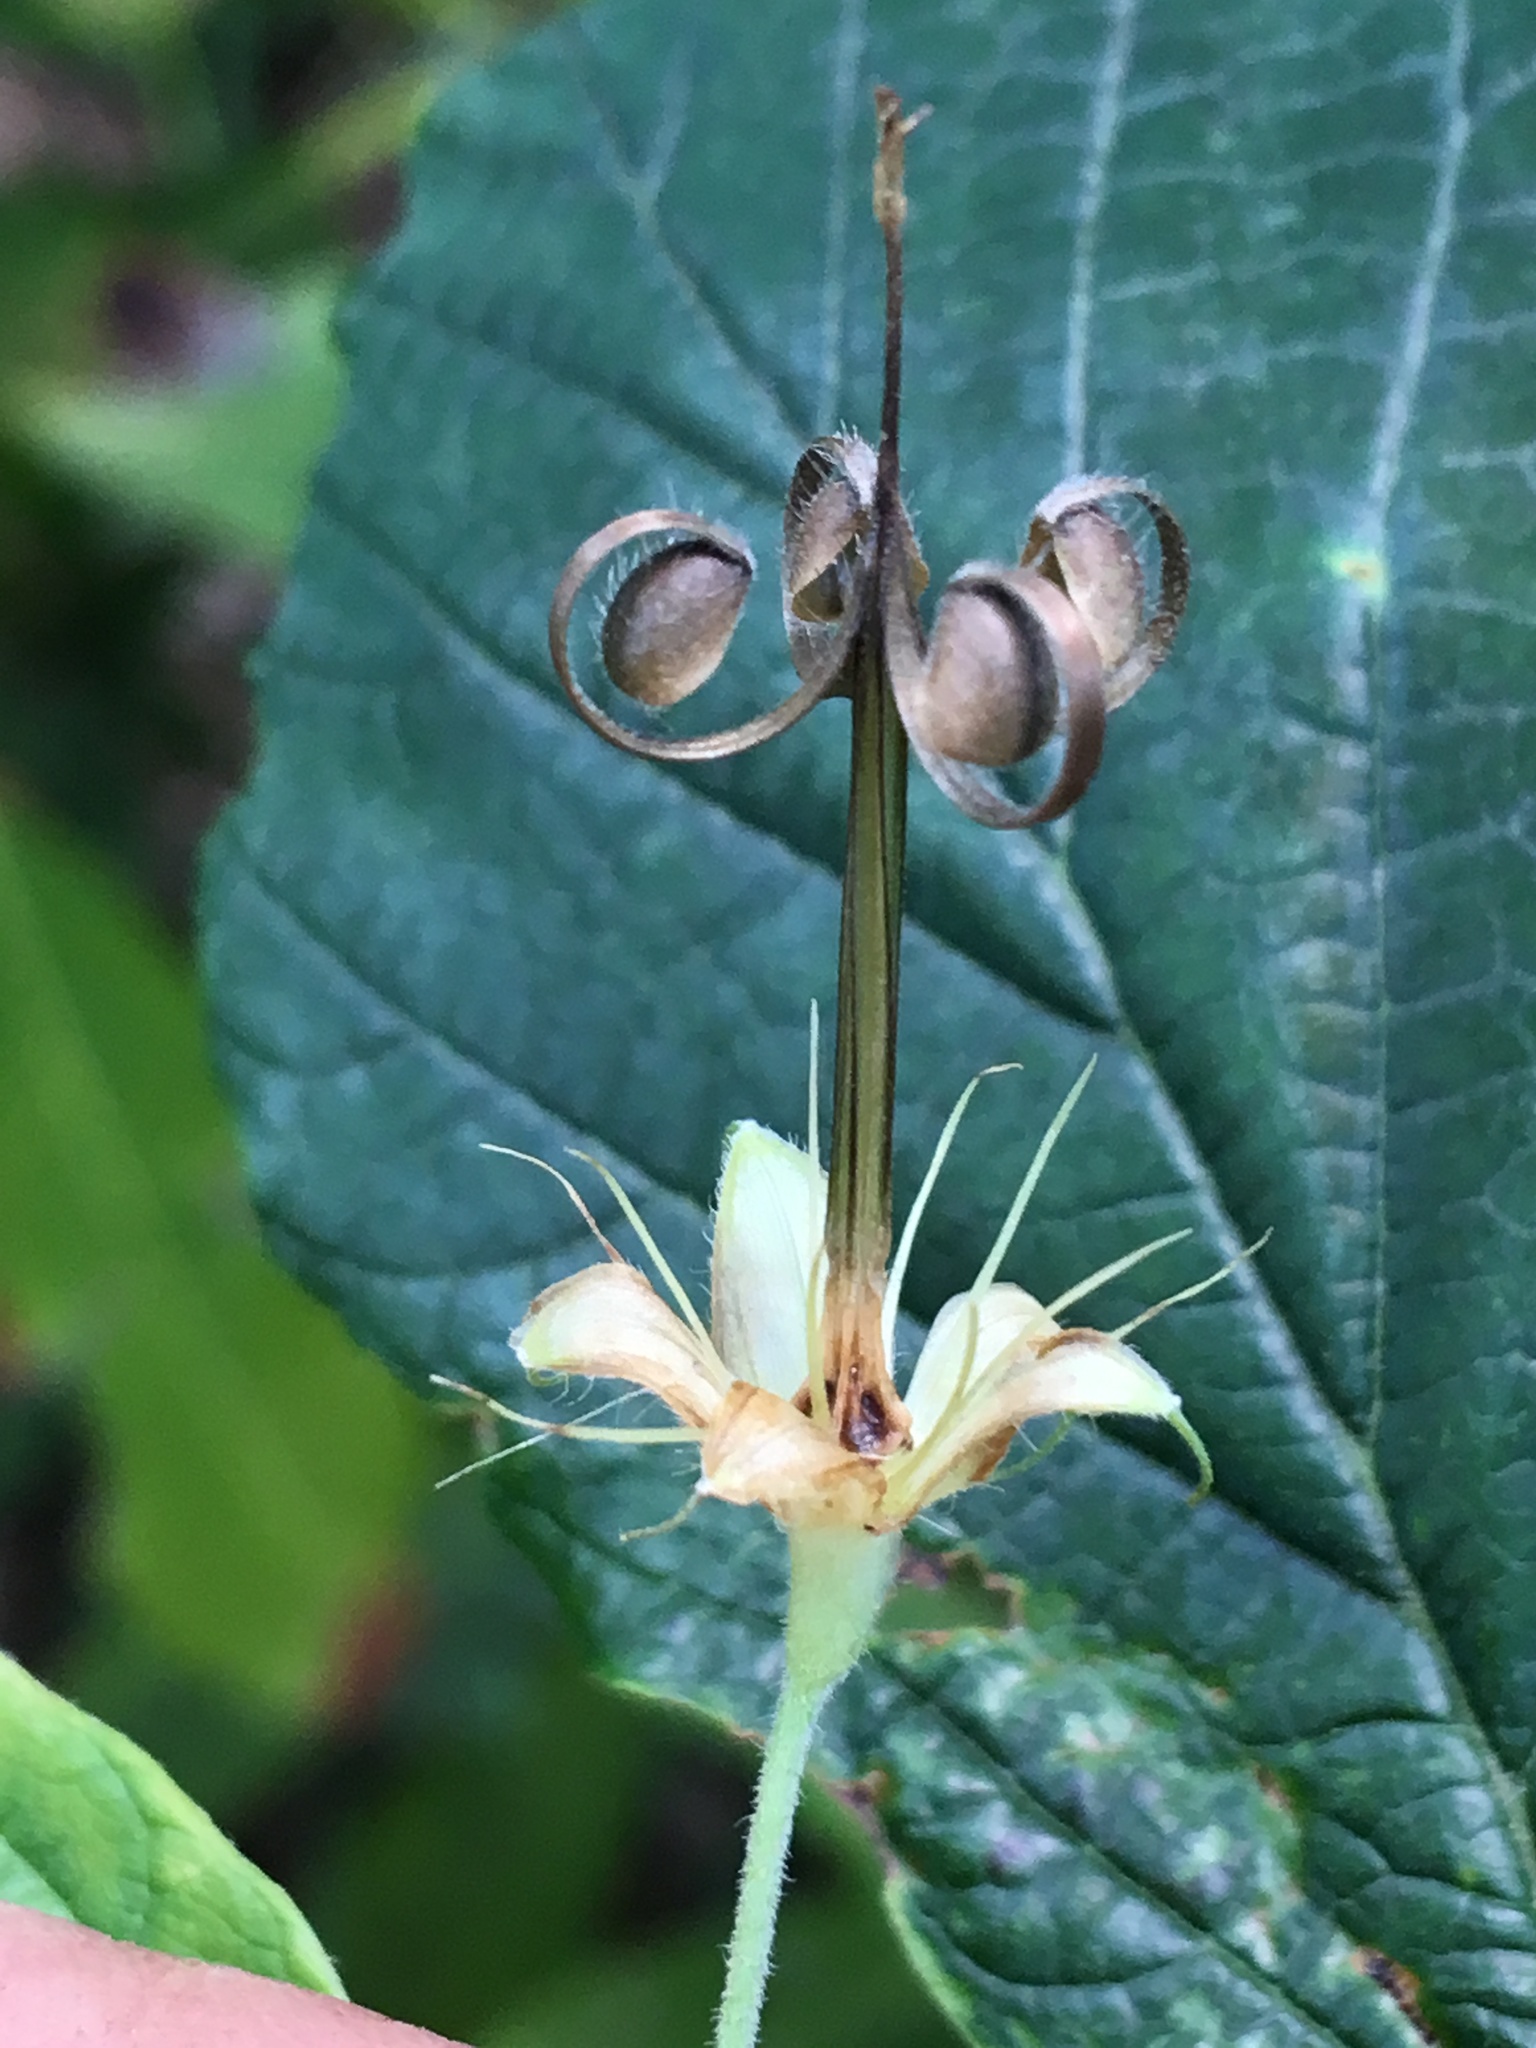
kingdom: Plantae
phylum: Tracheophyta
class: Magnoliopsida
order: Geraniales
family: Geraniaceae
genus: Geranium
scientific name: Geranium maculatum
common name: Spotted geranium
